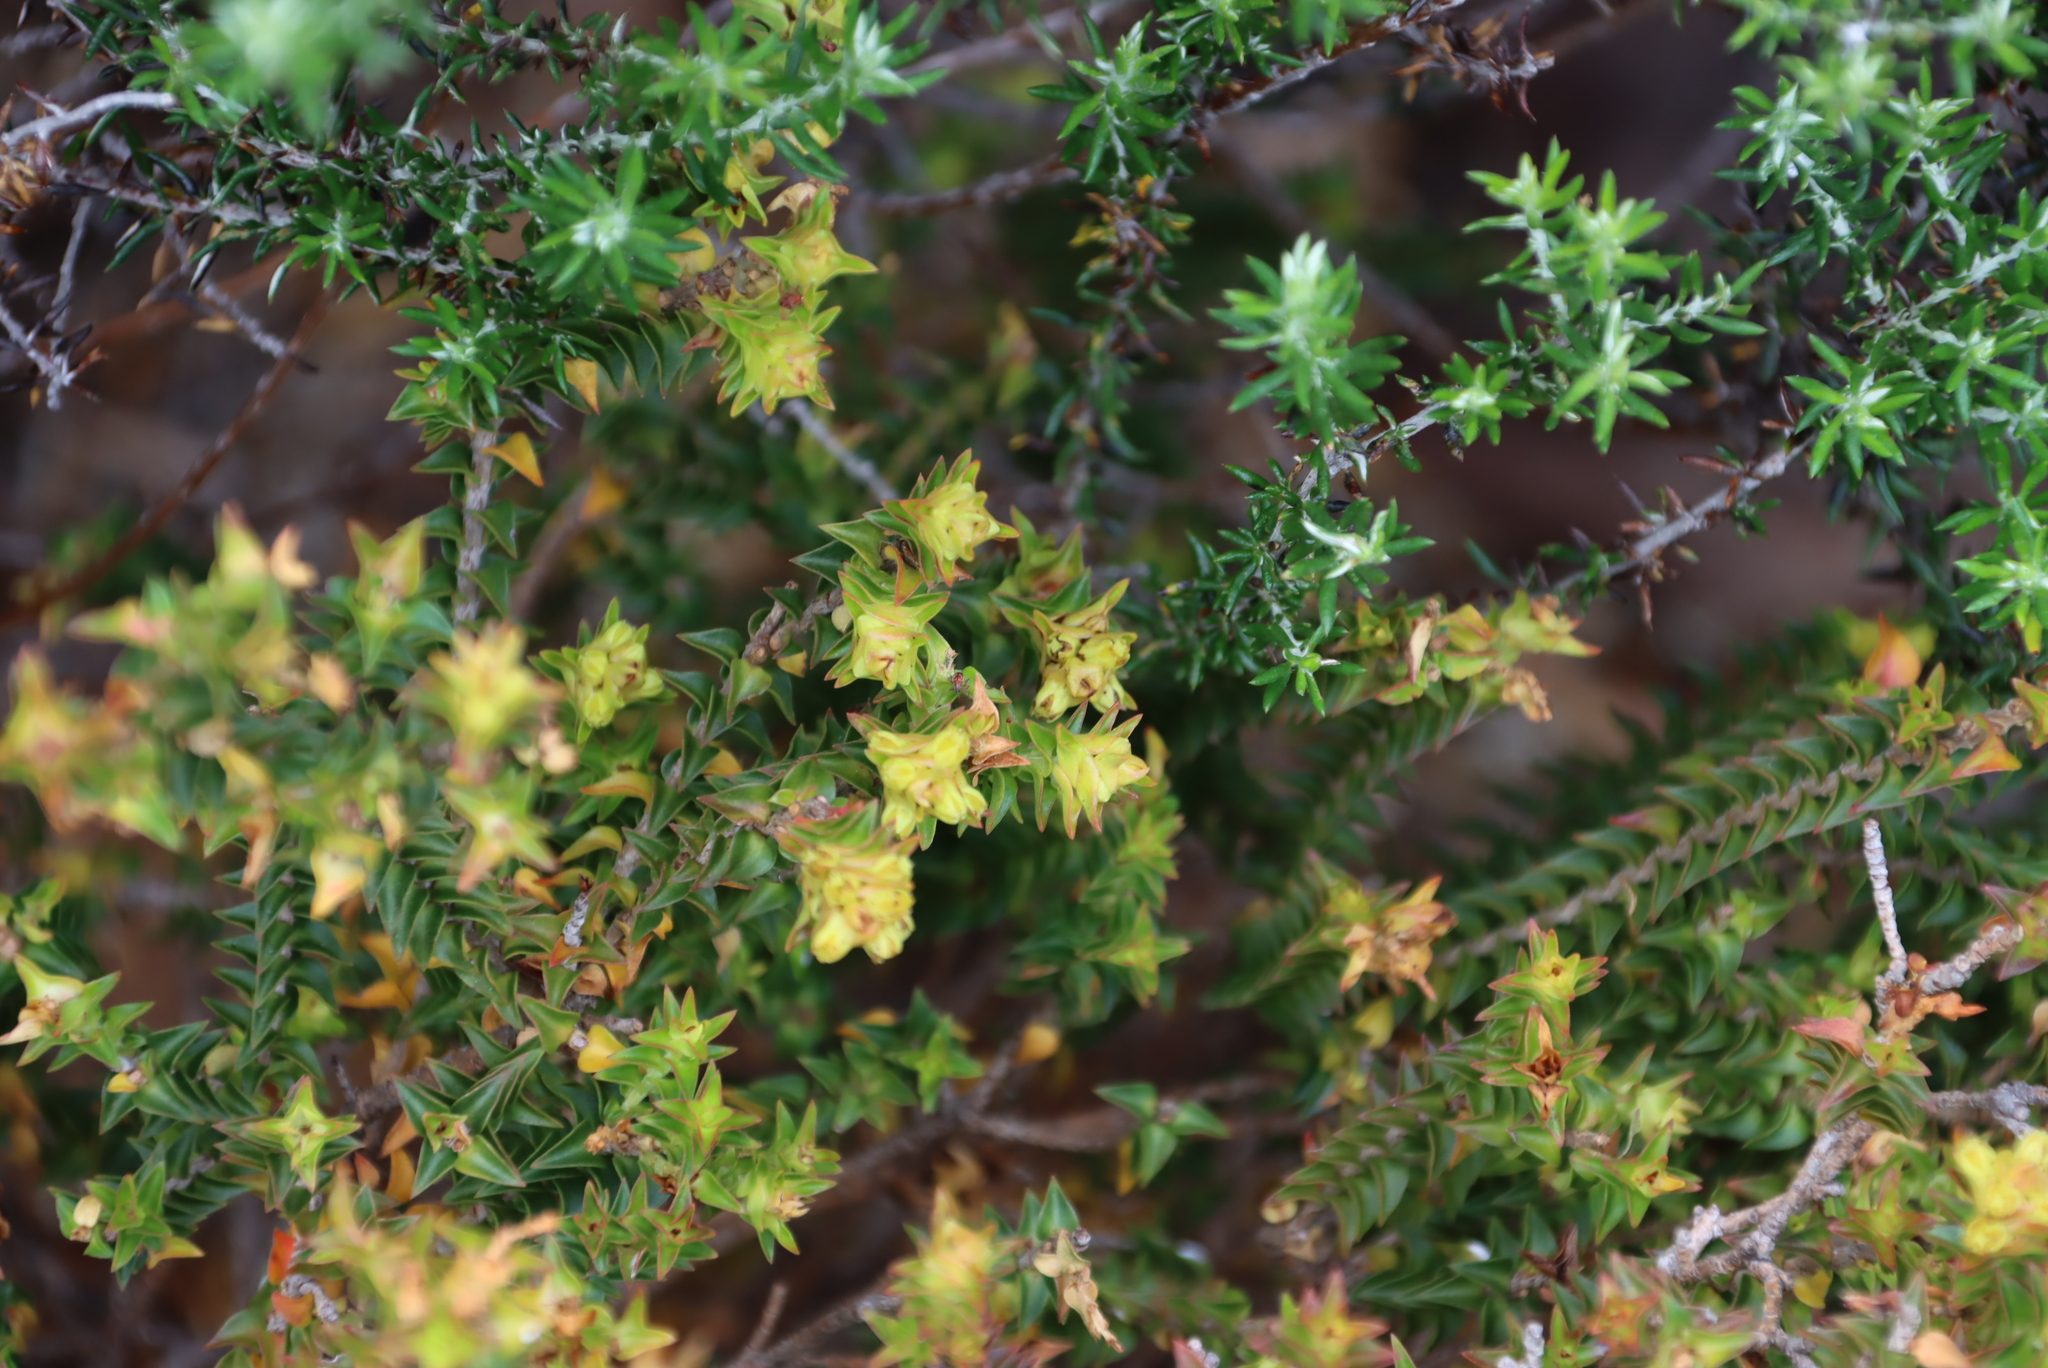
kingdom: Plantae
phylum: Tracheophyta
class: Magnoliopsida
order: Myrtales
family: Penaeaceae
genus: Penaea
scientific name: Penaea mucronata
